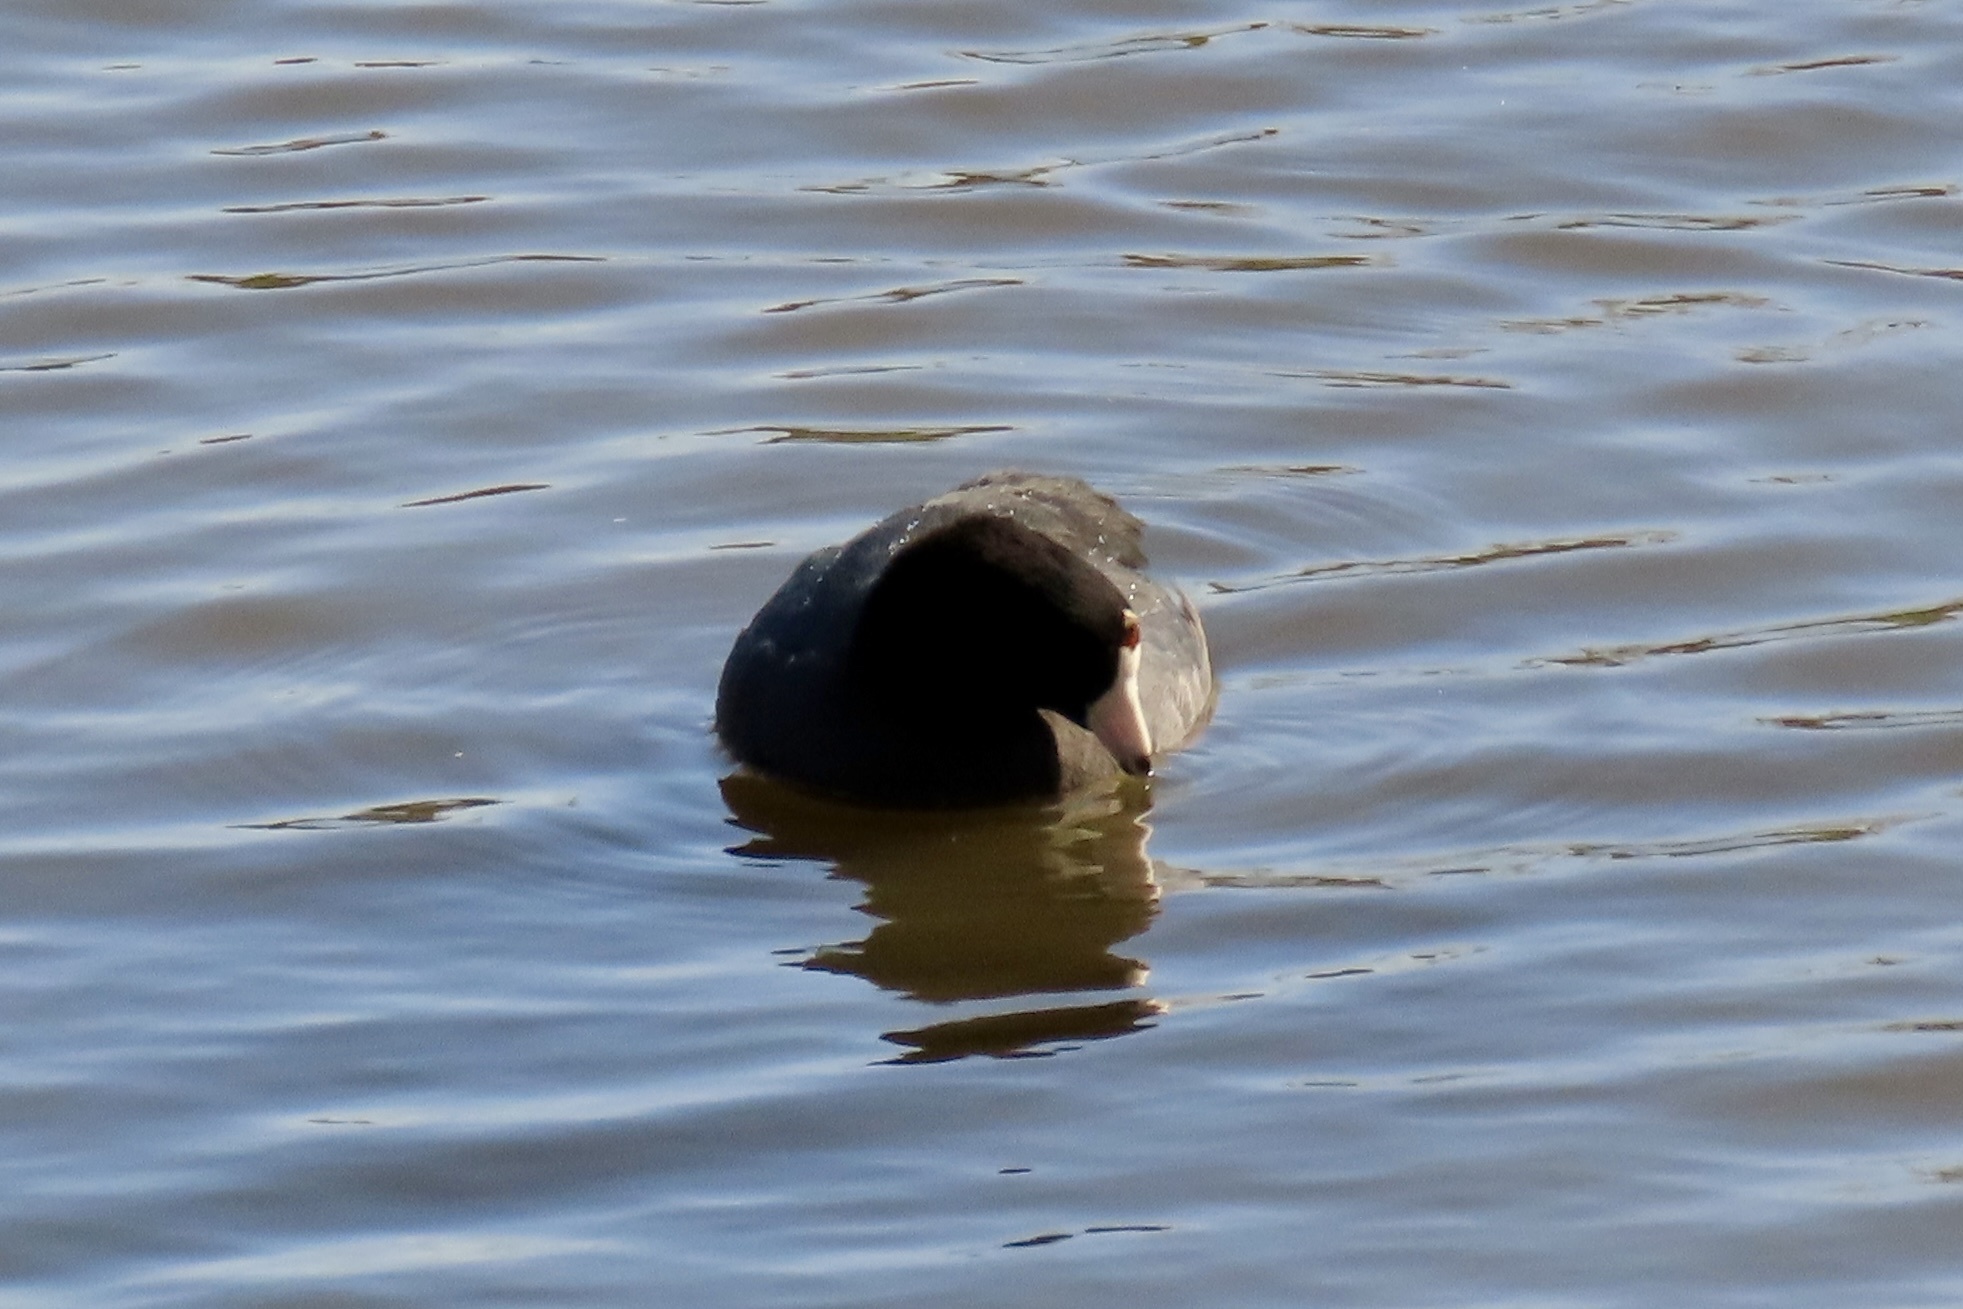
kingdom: Animalia
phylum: Chordata
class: Aves
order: Gruiformes
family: Rallidae
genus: Fulica
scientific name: Fulica americana
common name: American coot
